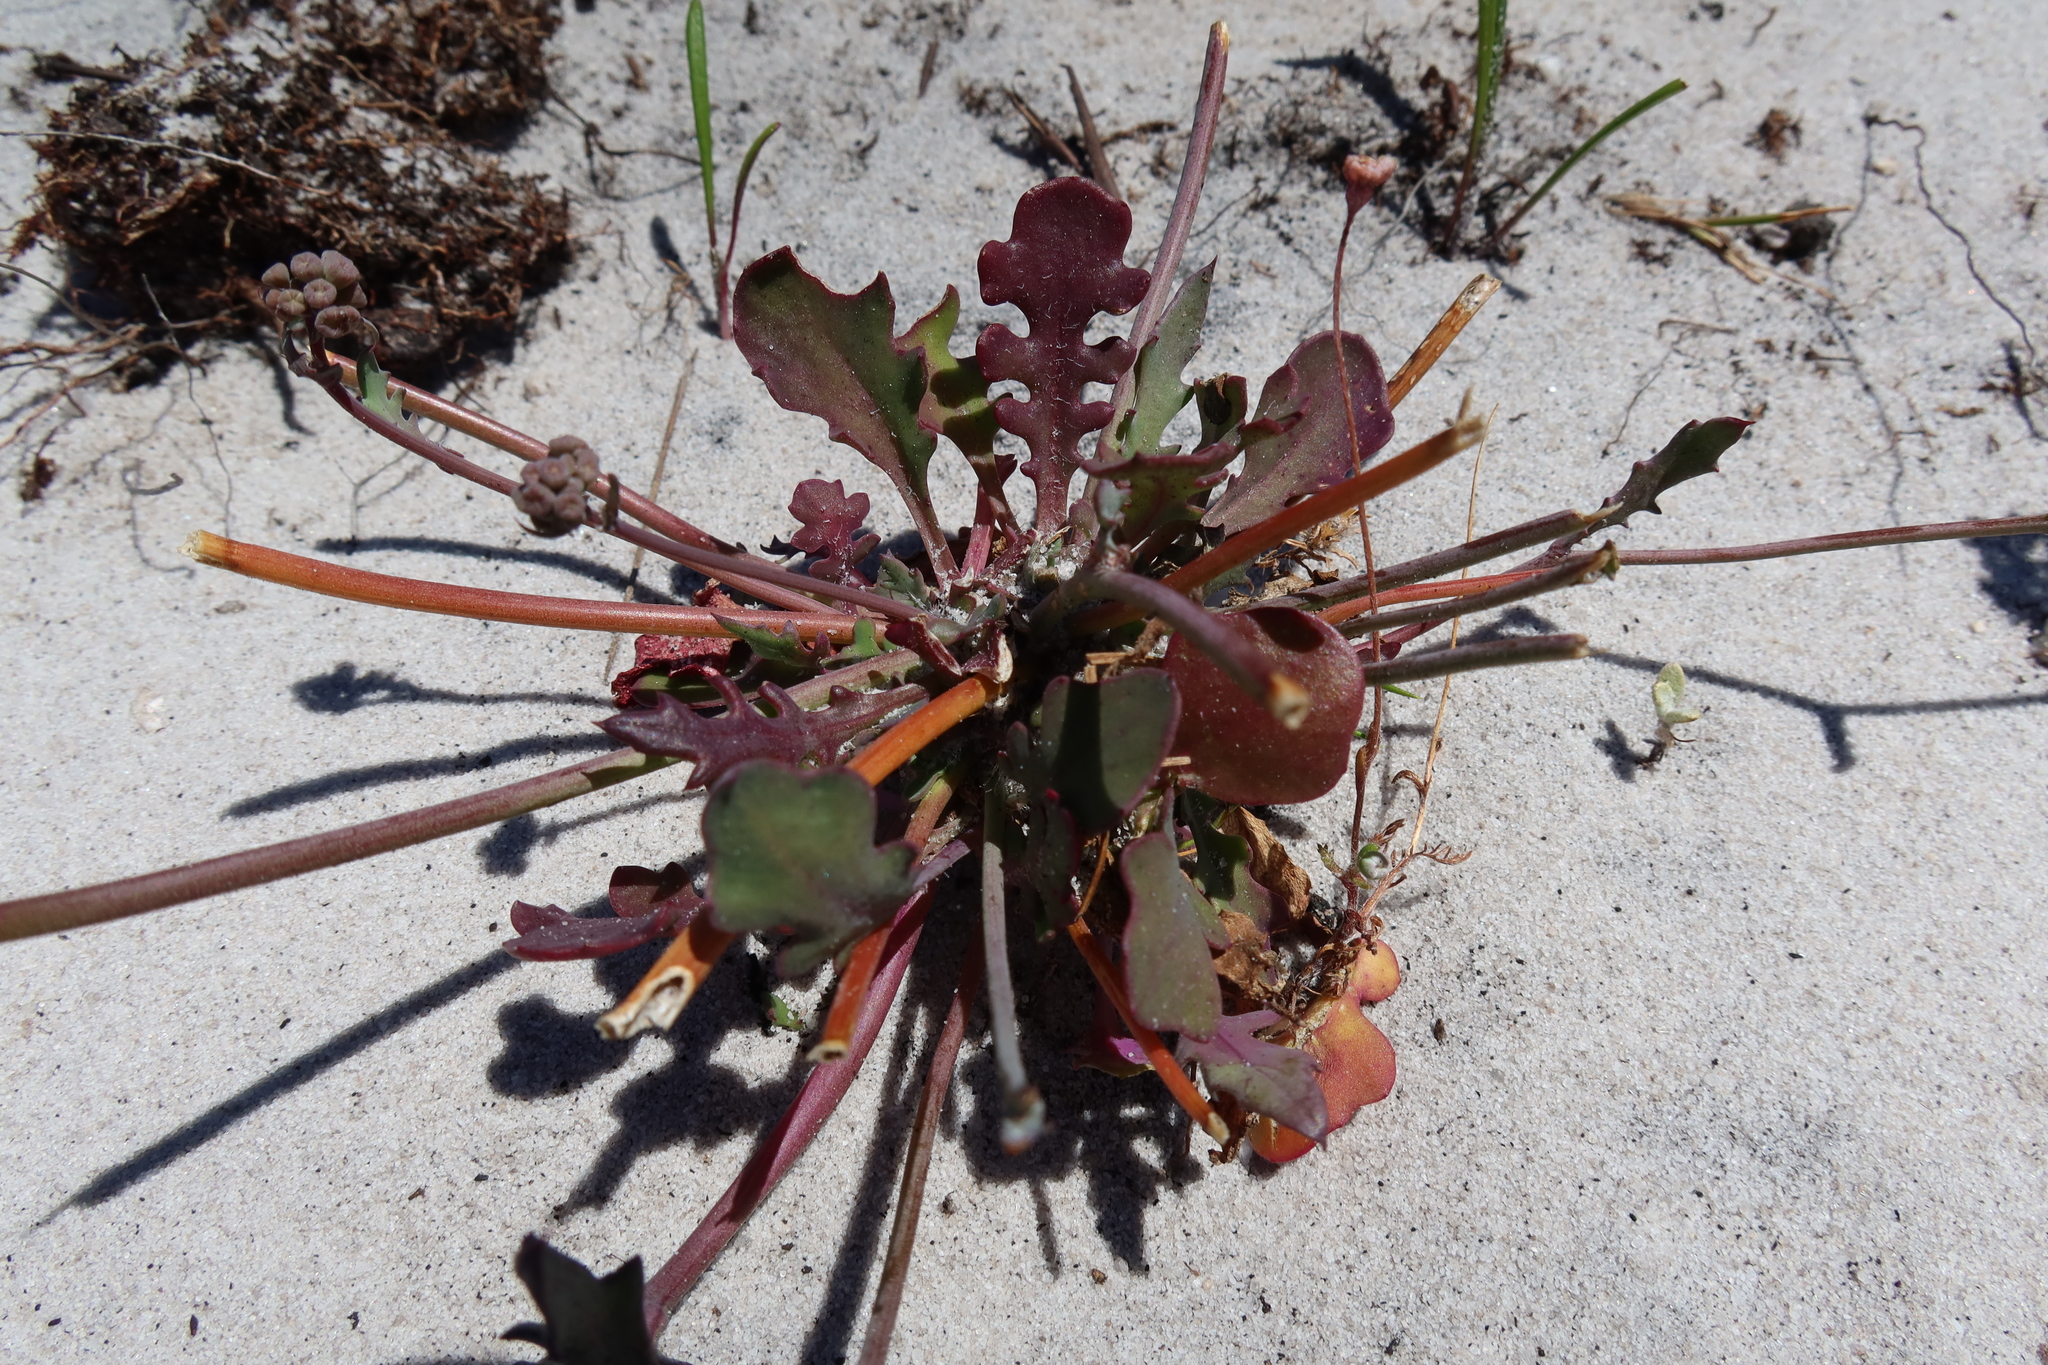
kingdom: Plantae
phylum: Tracheophyta
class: Magnoliopsida
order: Asterales
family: Asteraceae
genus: Gymnodiscus
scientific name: Gymnodiscus capillaris
